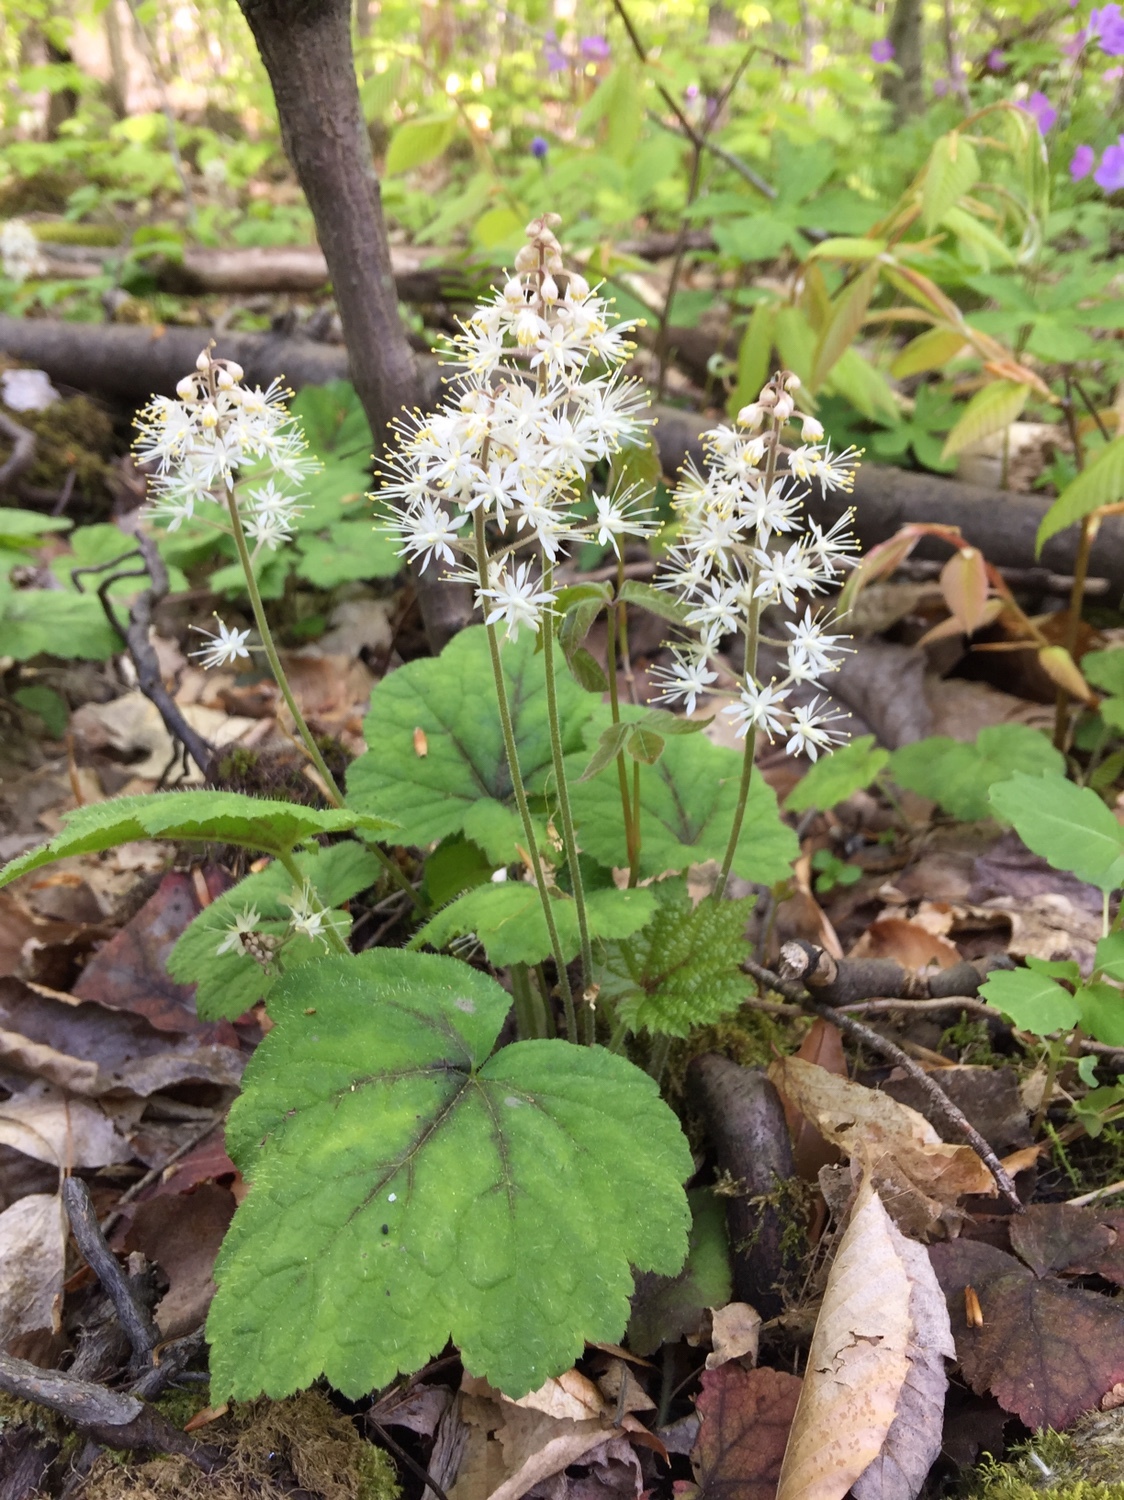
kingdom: Plantae
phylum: Tracheophyta
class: Magnoliopsida
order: Saxifragales
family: Saxifragaceae
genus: Tiarella
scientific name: Tiarella stolonifera
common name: Stoloniferous foamflower
